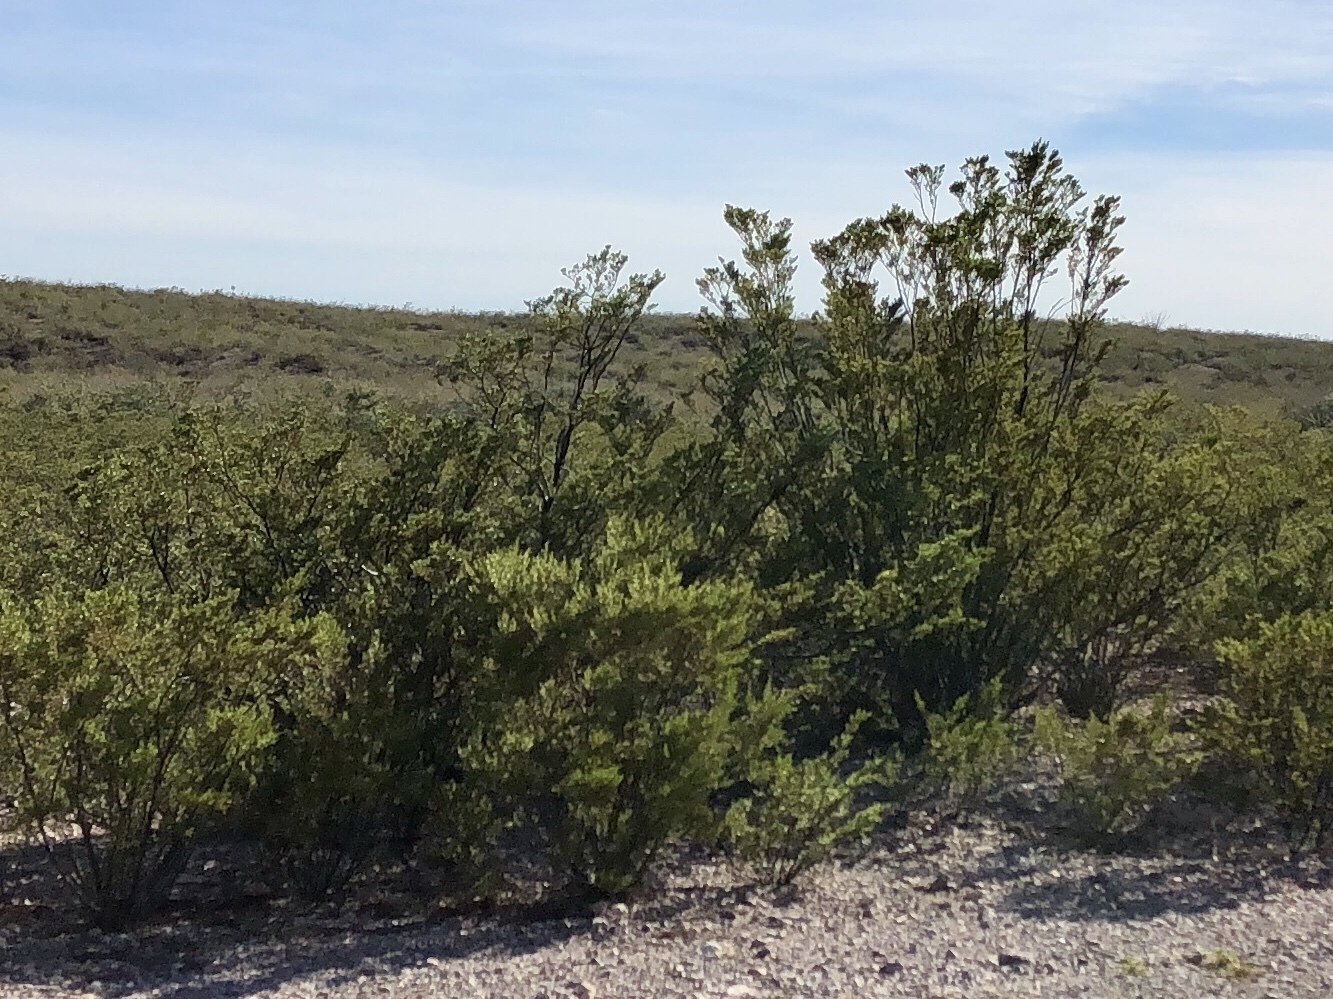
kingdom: Plantae
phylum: Tracheophyta
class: Magnoliopsida
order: Zygophyllales
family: Zygophyllaceae
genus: Larrea
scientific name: Larrea tridentata
